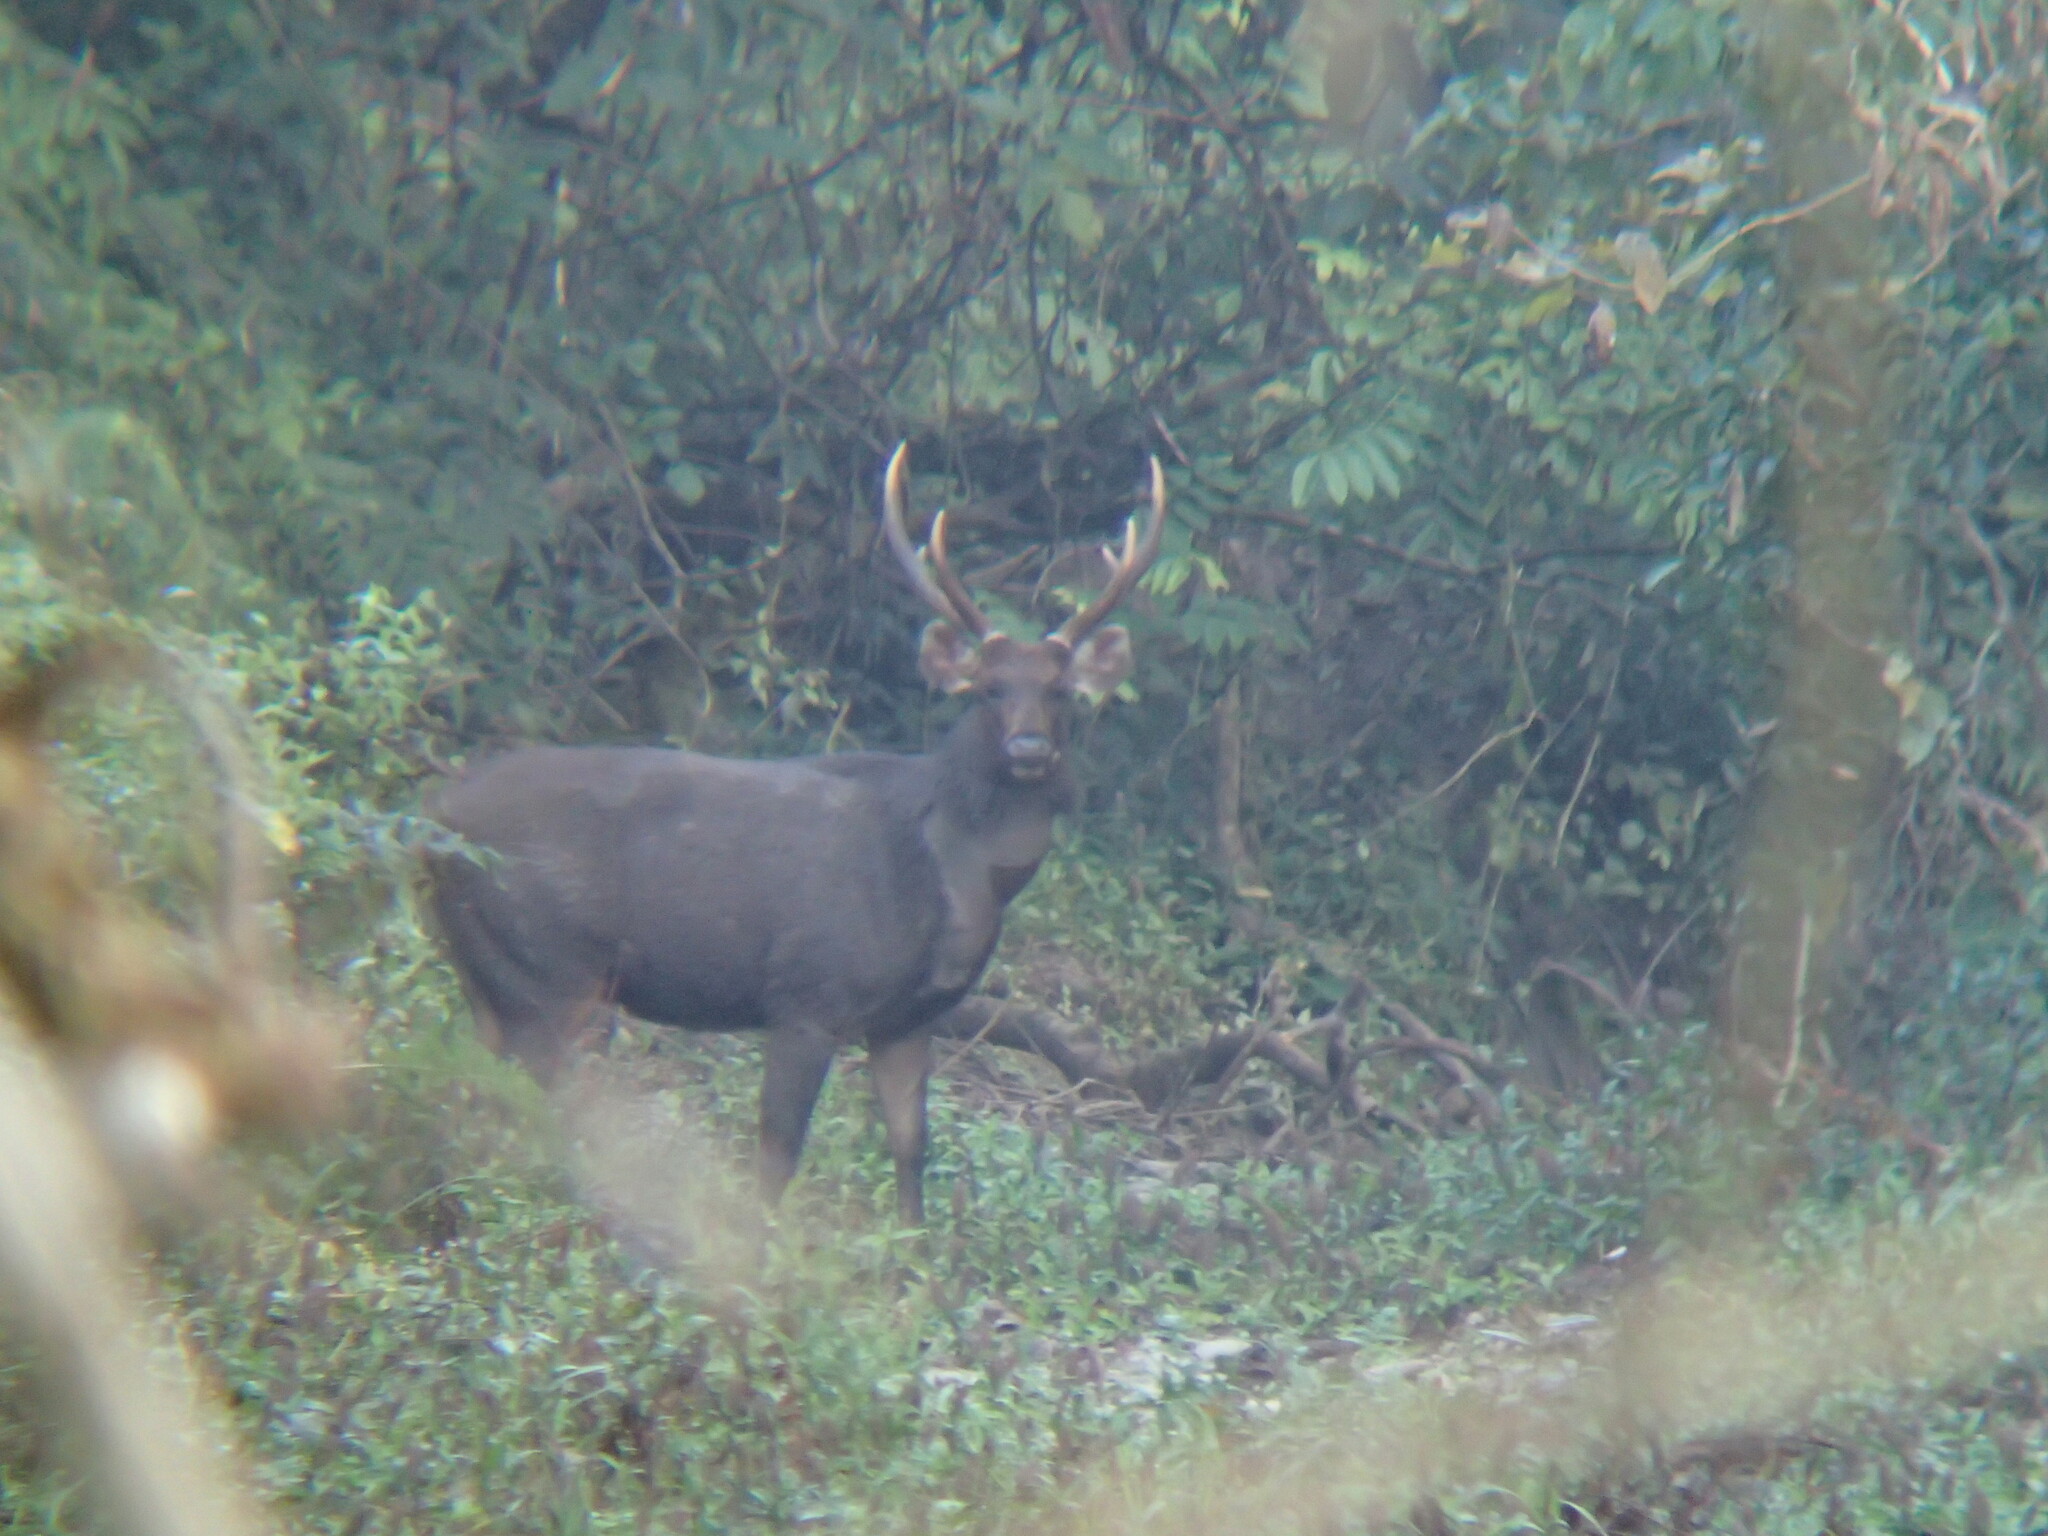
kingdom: Animalia
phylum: Chordata
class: Mammalia
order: Artiodactyla
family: Cervidae
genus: Rusa
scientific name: Rusa unicolor
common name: Sambar
